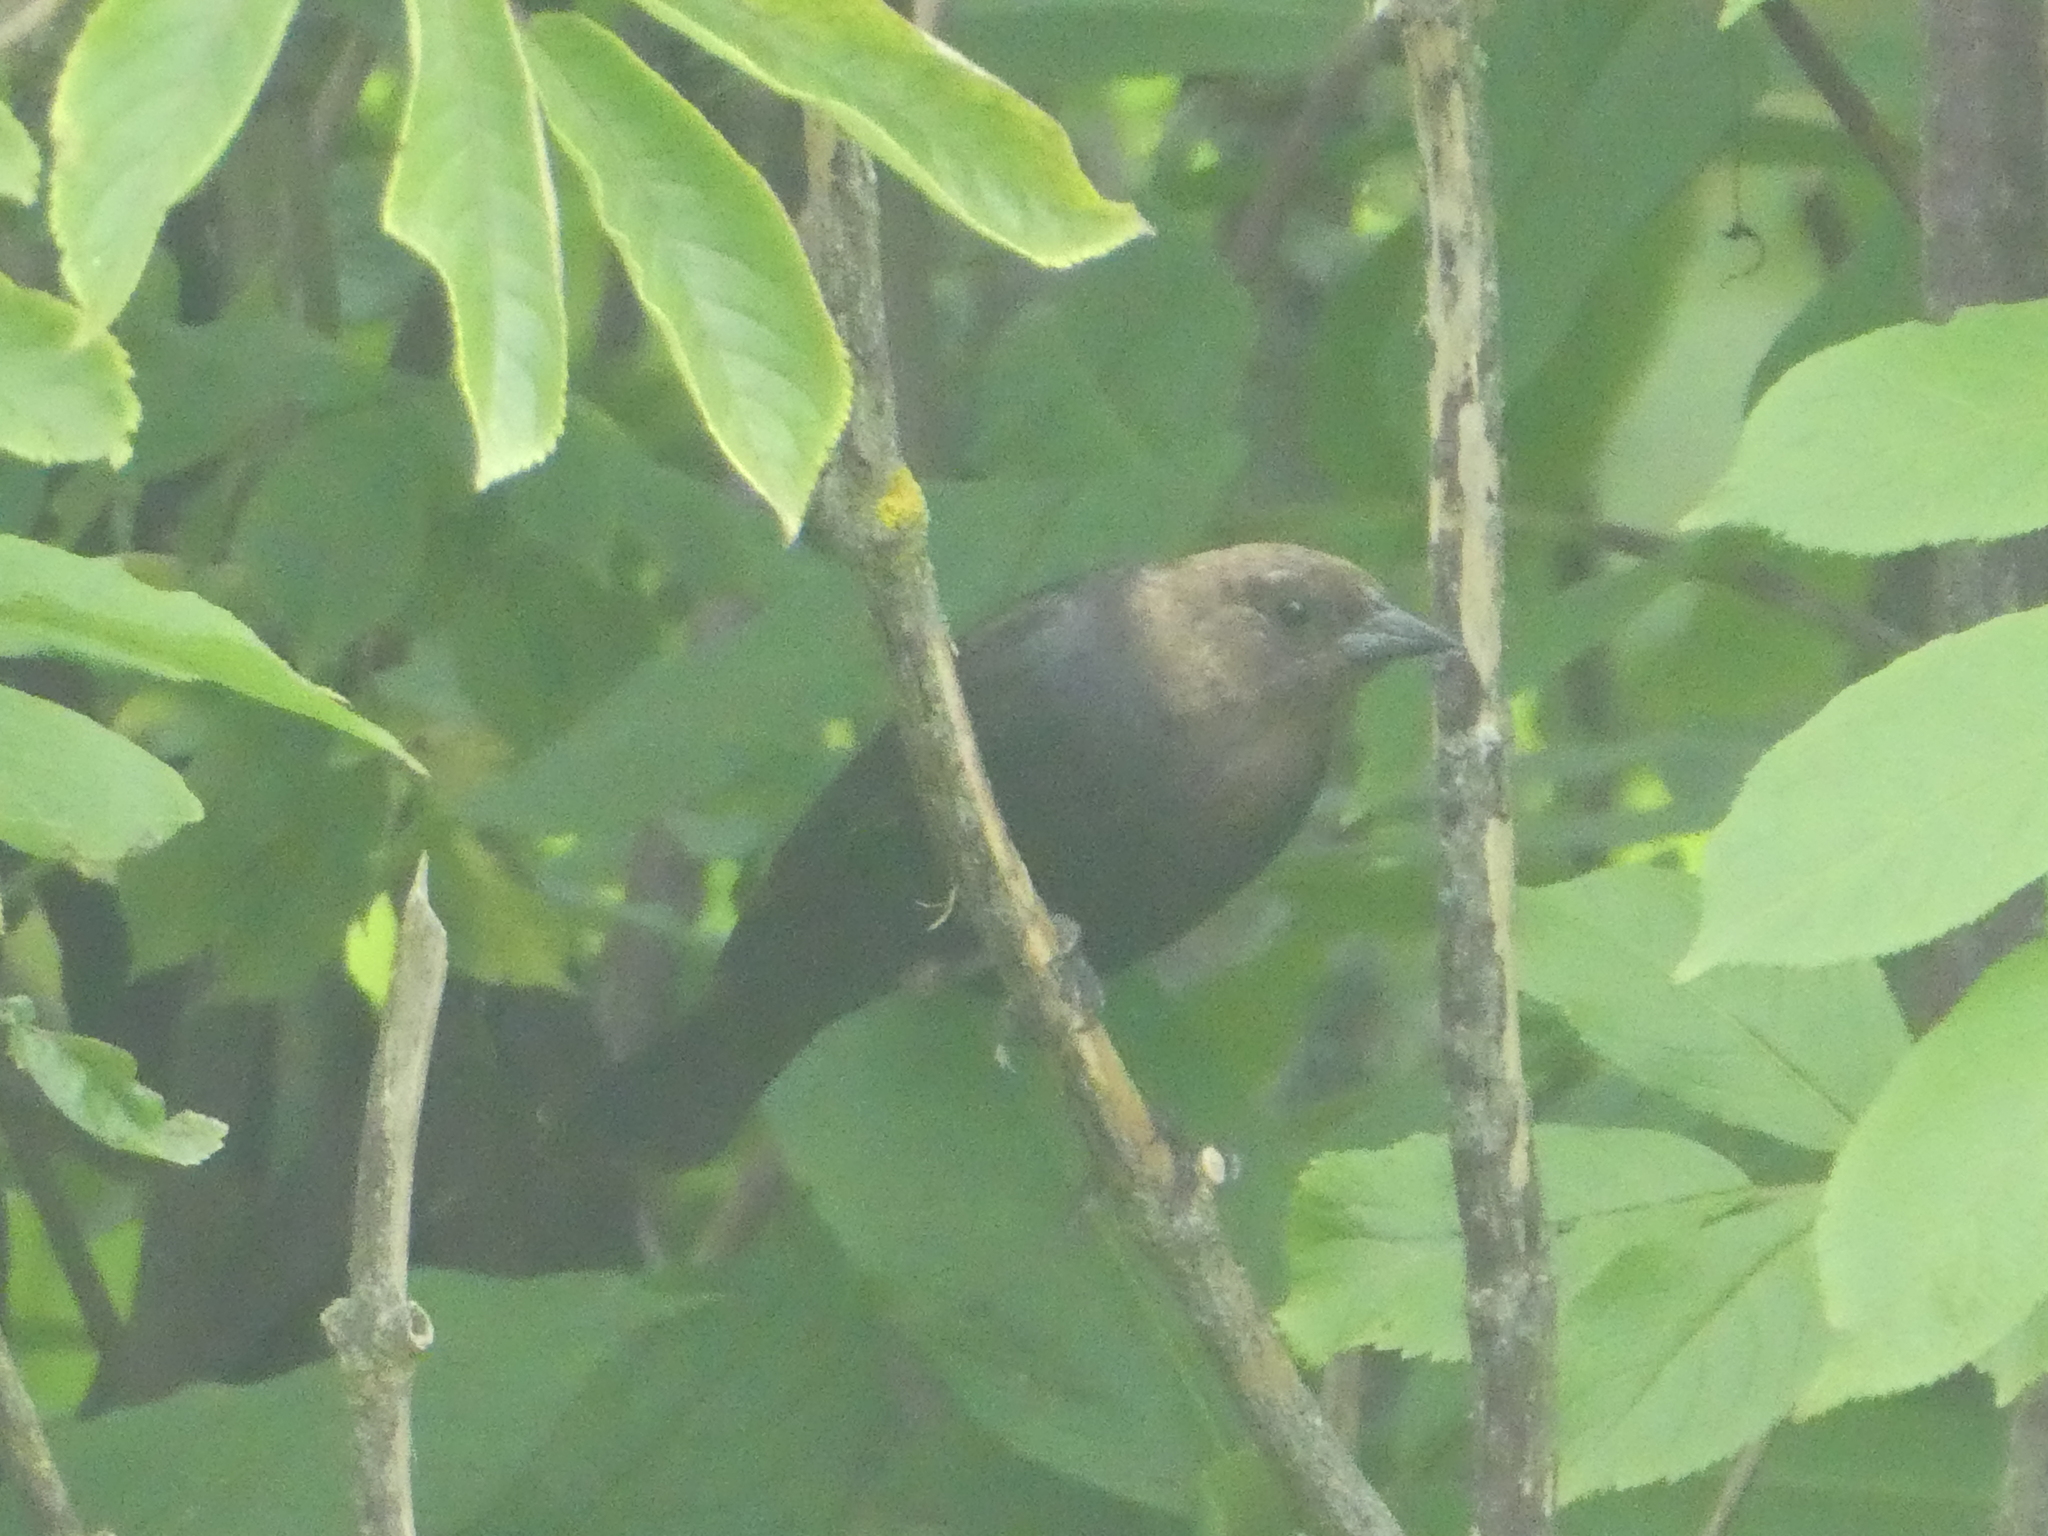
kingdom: Animalia
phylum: Chordata
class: Aves
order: Passeriformes
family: Icteridae
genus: Molothrus
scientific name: Molothrus ater
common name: Brown-headed cowbird
